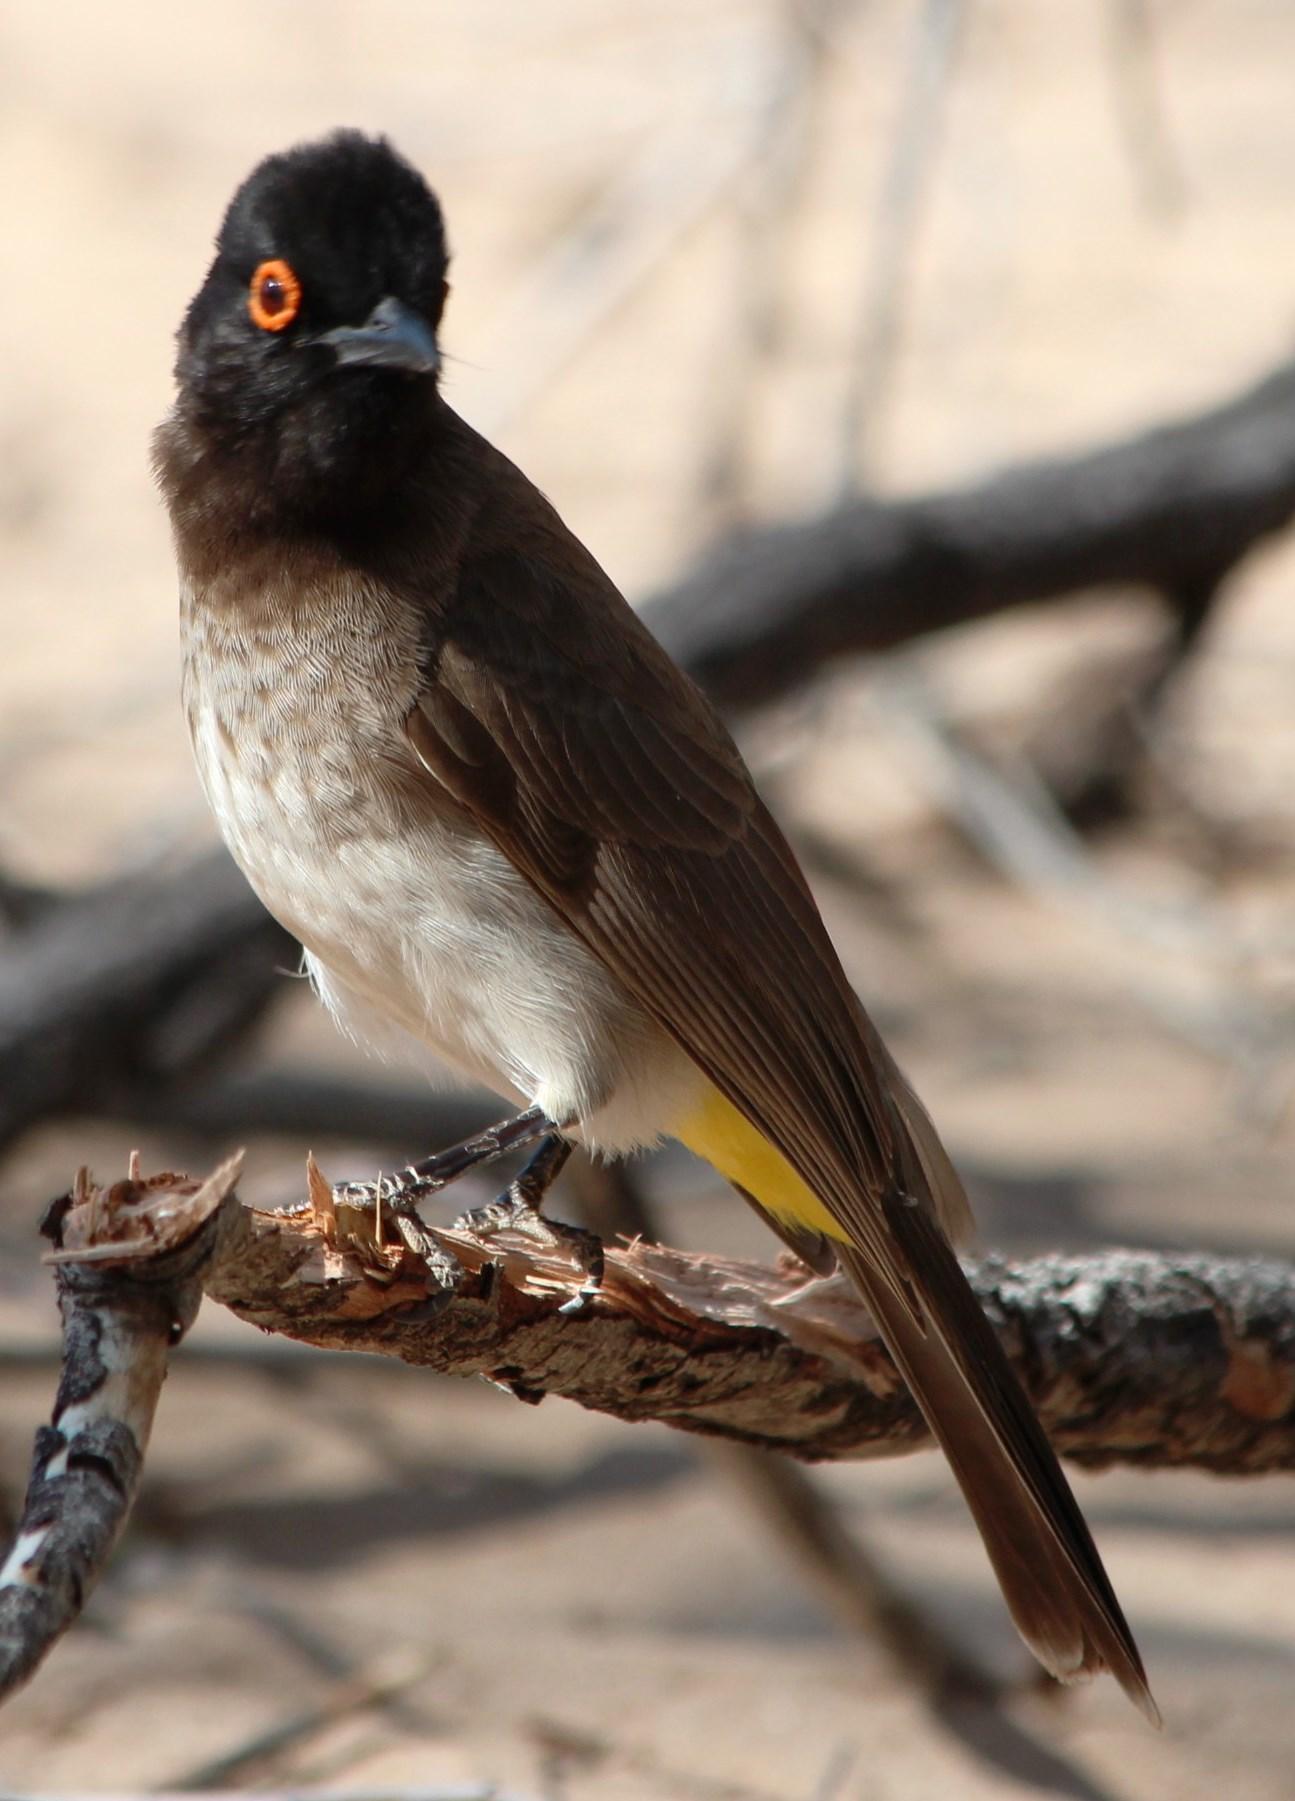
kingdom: Animalia
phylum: Chordata
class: Aves
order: Passeriformes
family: Pycnonotidae
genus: Pycnonotus
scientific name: Pycnonotus nigricans
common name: African red-eyed bulbul
